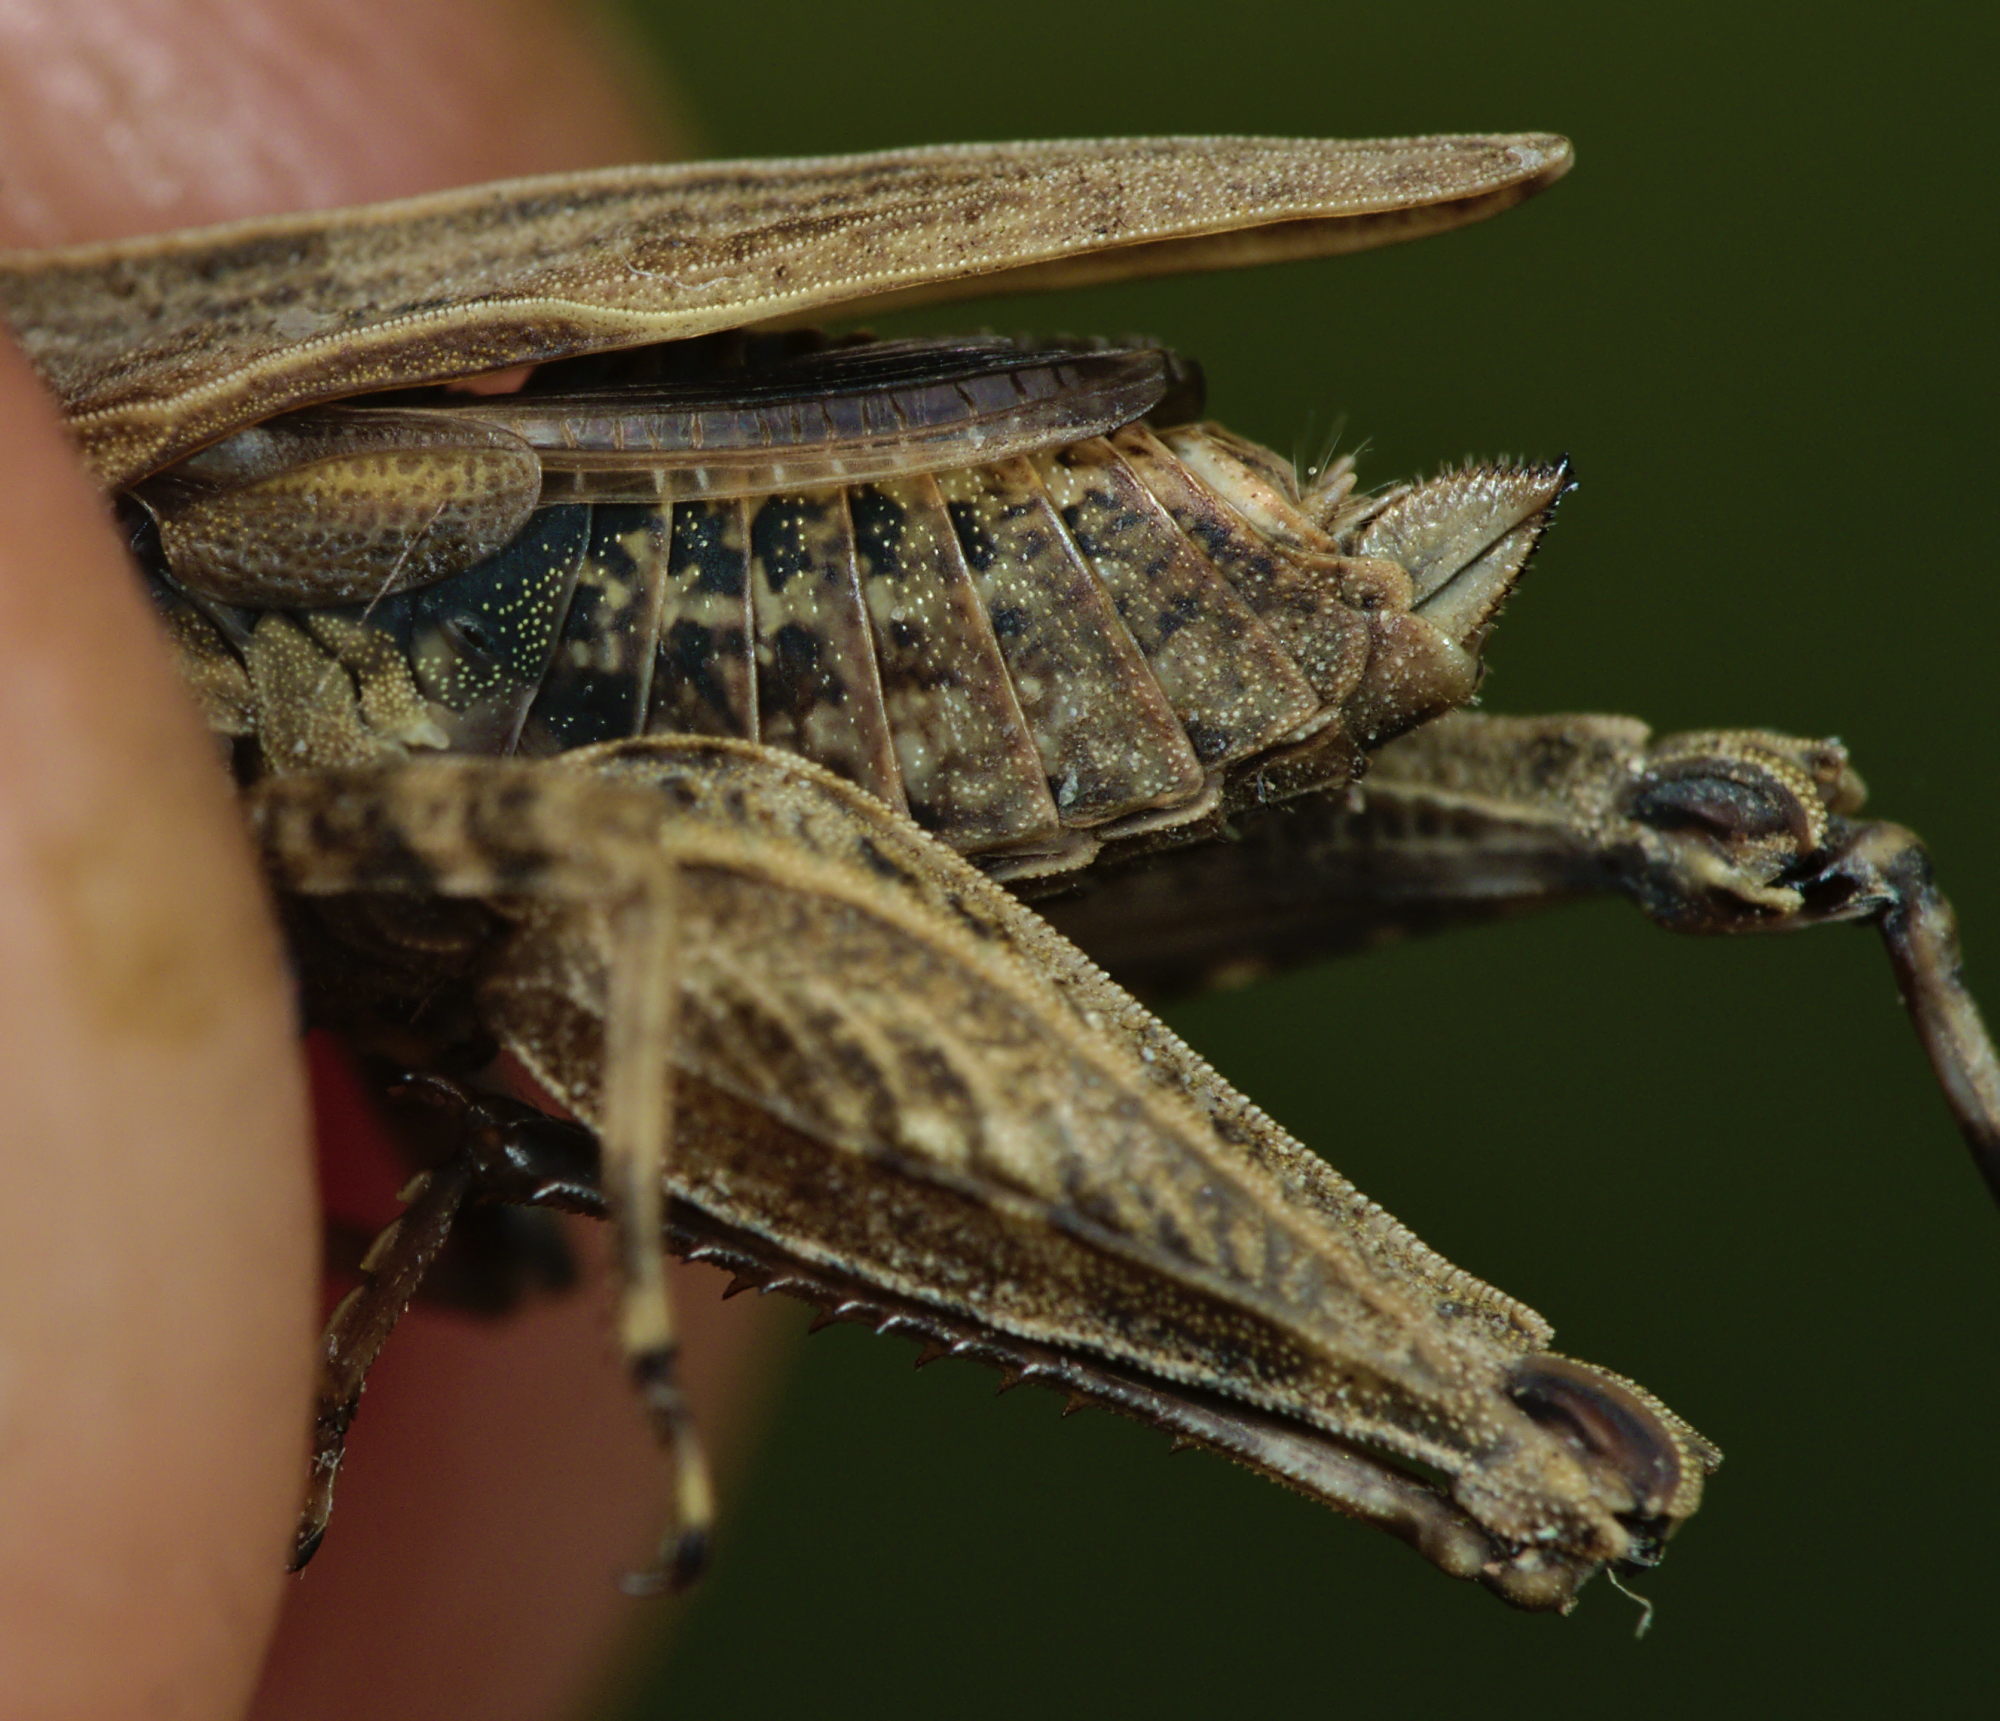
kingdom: Animalia
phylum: Arthropoda
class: Insecta
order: Orthoptera
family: Tetrigidae
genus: Tetrix
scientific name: Tetrix undulata
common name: Common groundhopper
